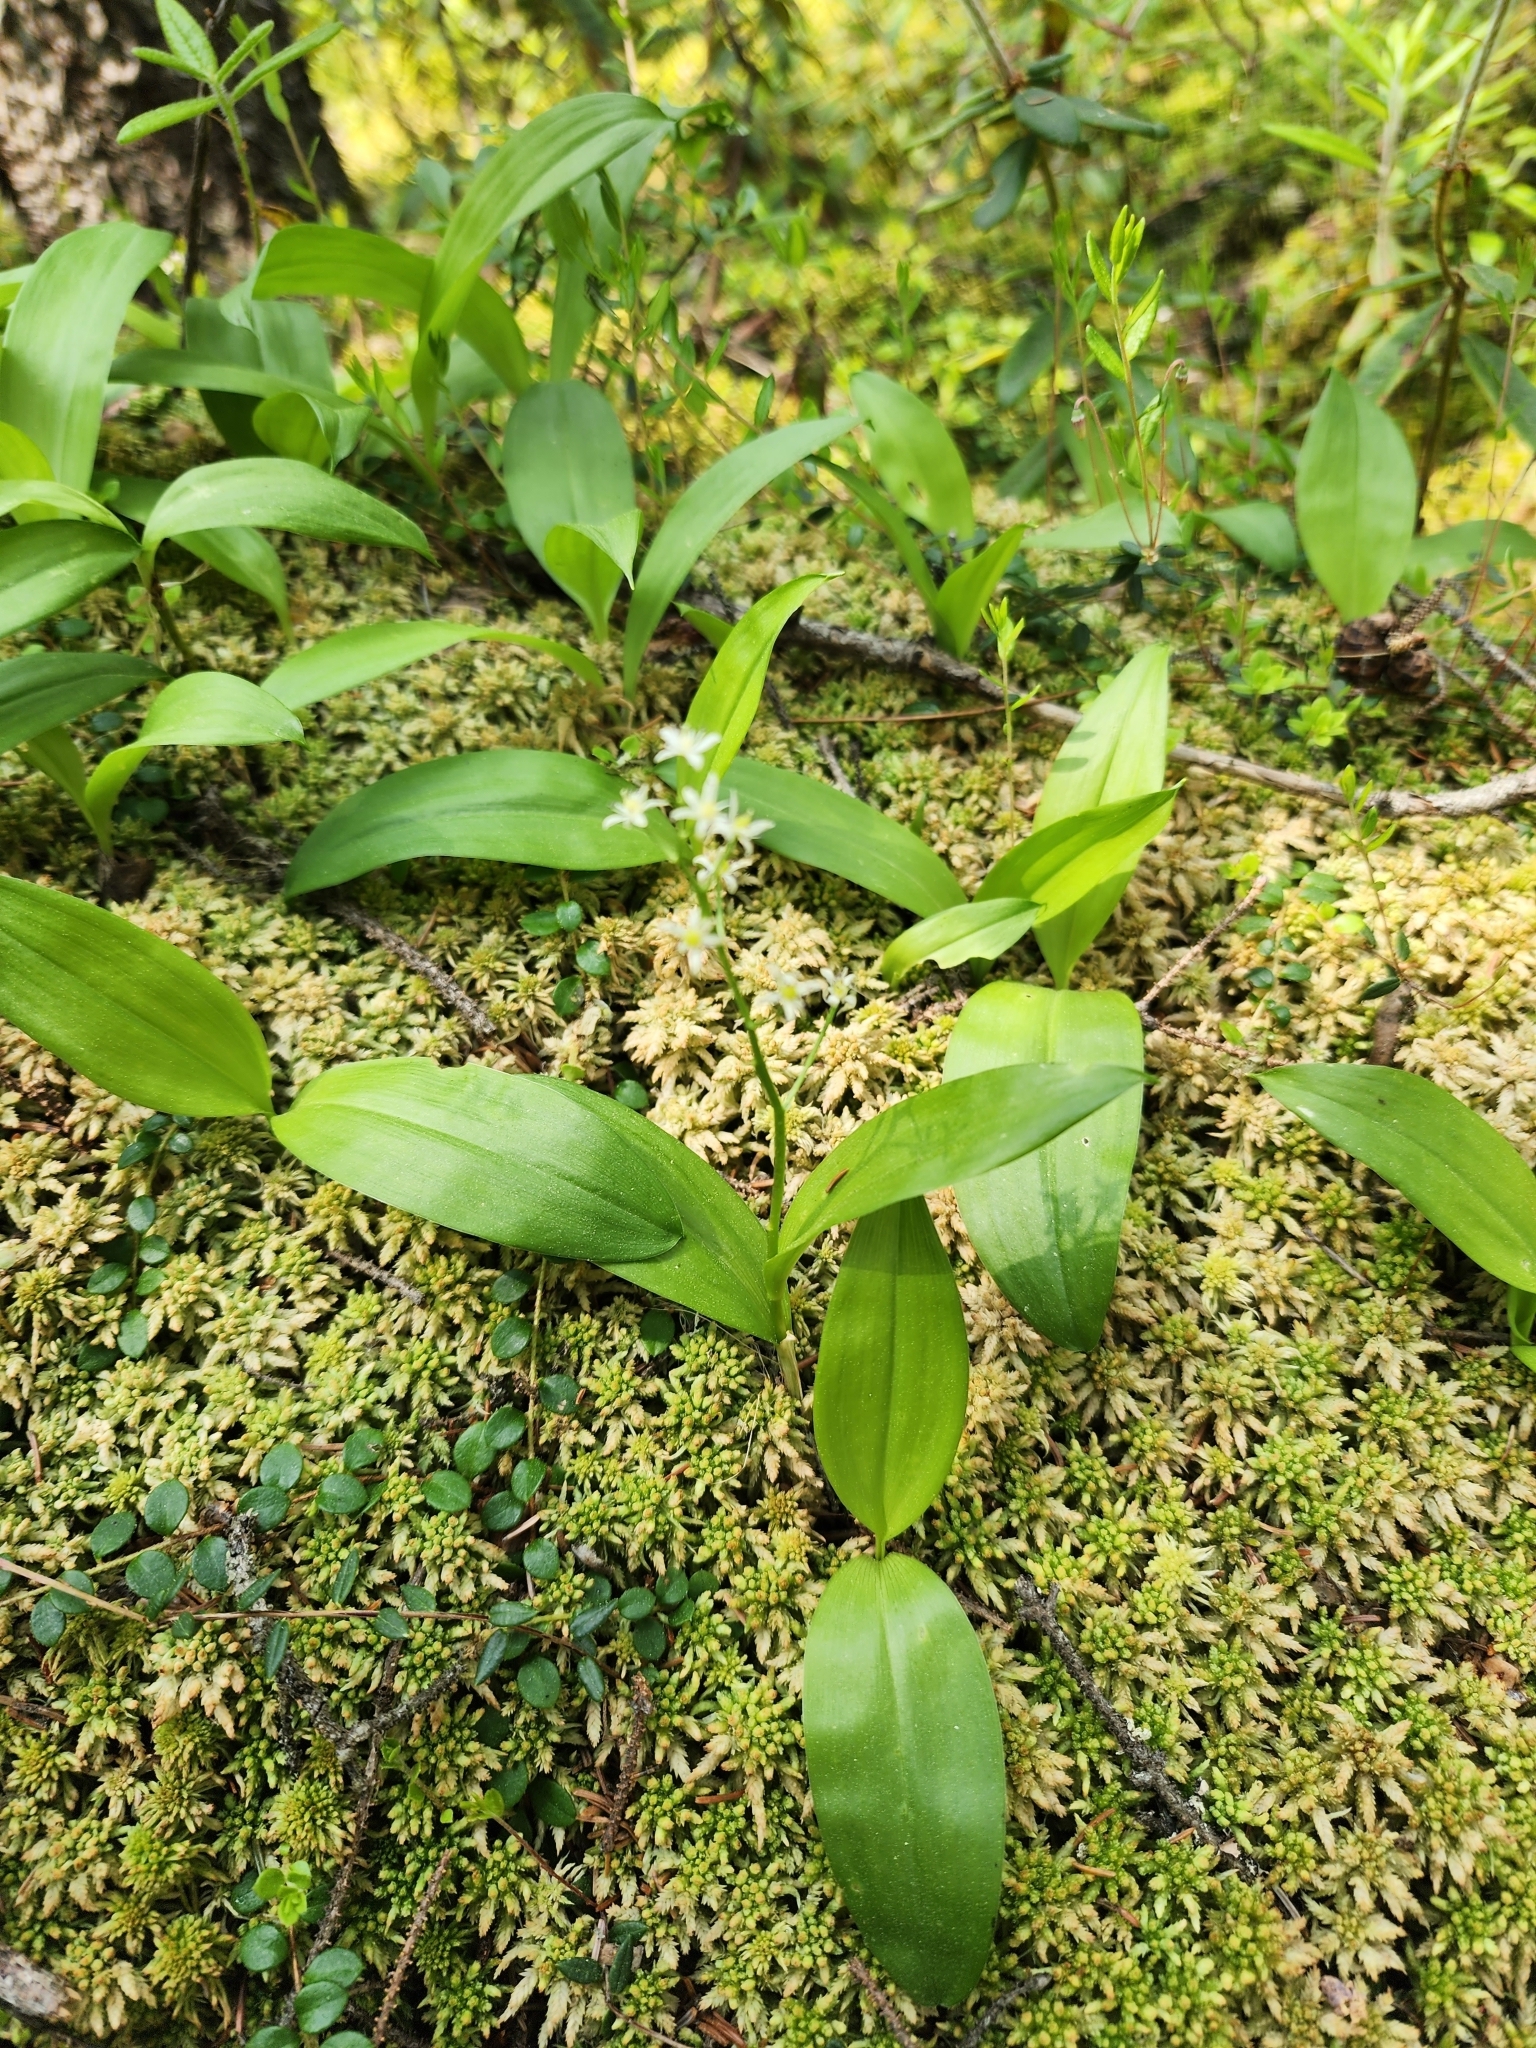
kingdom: Plantae
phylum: Tracheophyta
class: Liliopsida
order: Asparagales
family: Asparagaceae
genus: Maianthemum
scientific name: Maianthemum trifolium
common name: Swamp false solomon's seal
